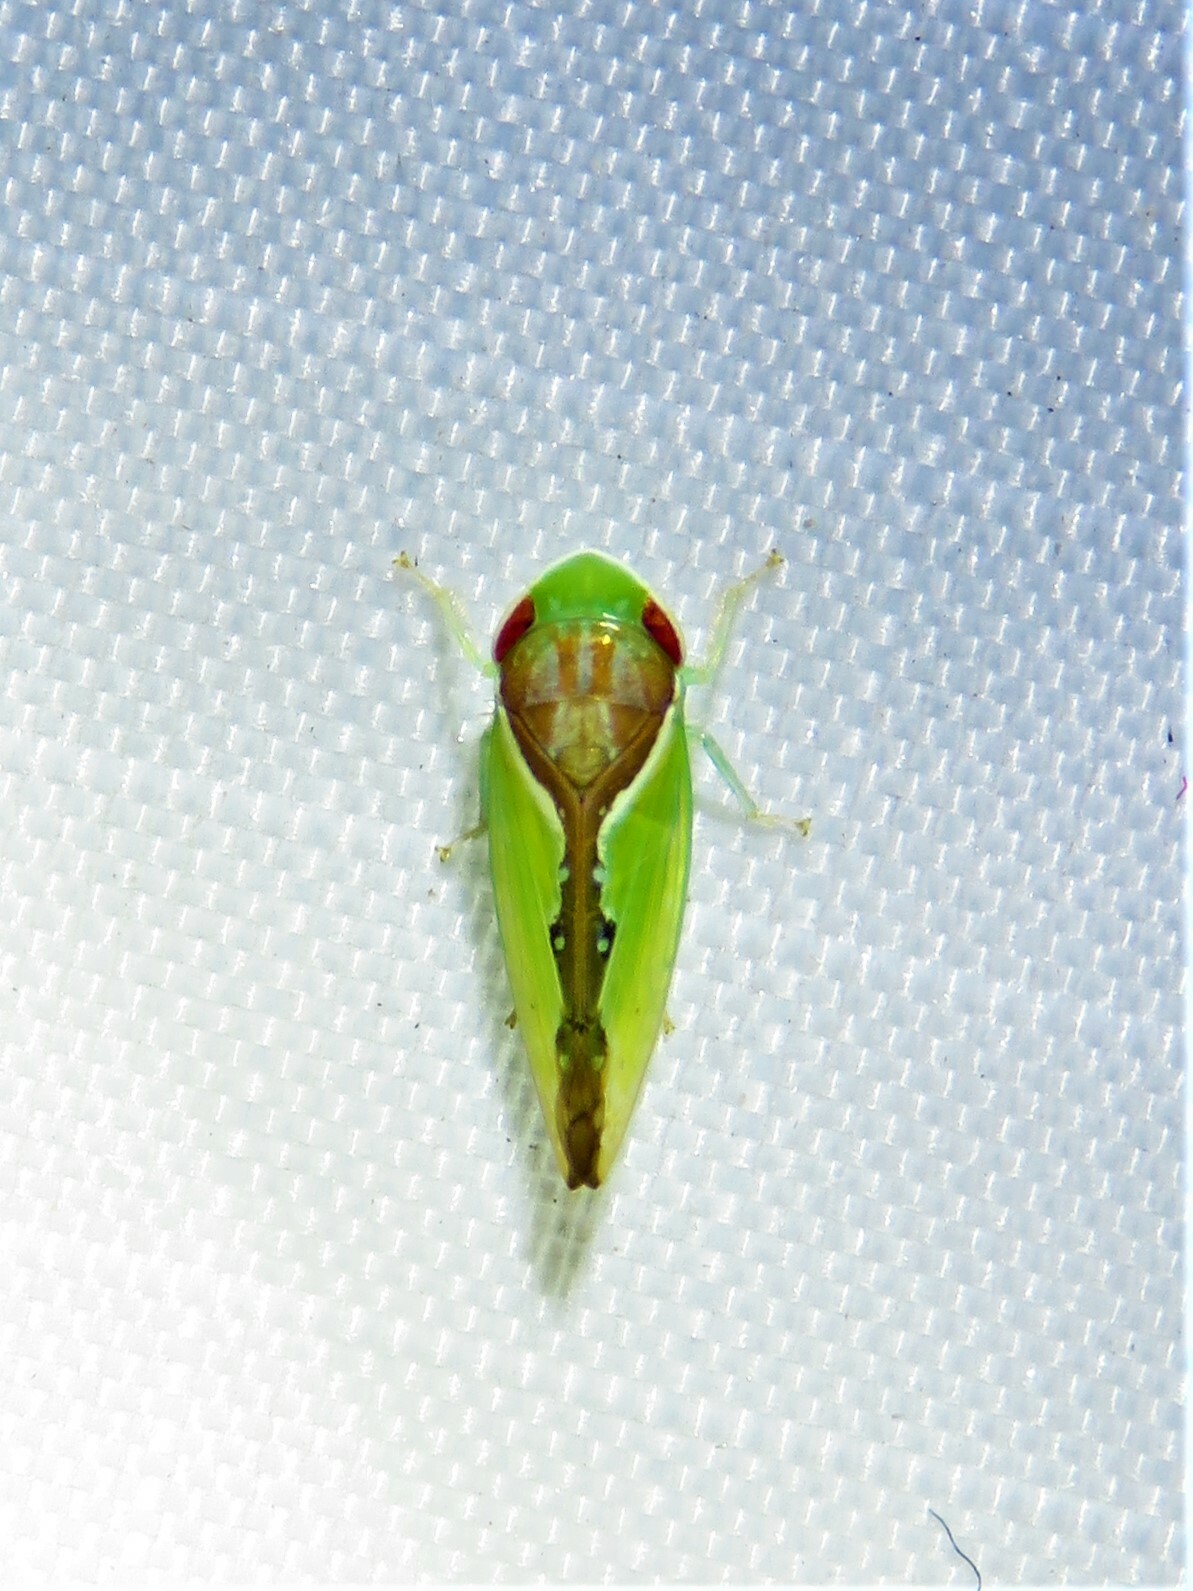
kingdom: Animalia
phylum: Arthropoda
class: Insecta
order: Hemiptera
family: Cicadellidae
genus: Omansobara ing
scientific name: Omansobara ing Omansobara palliolata
